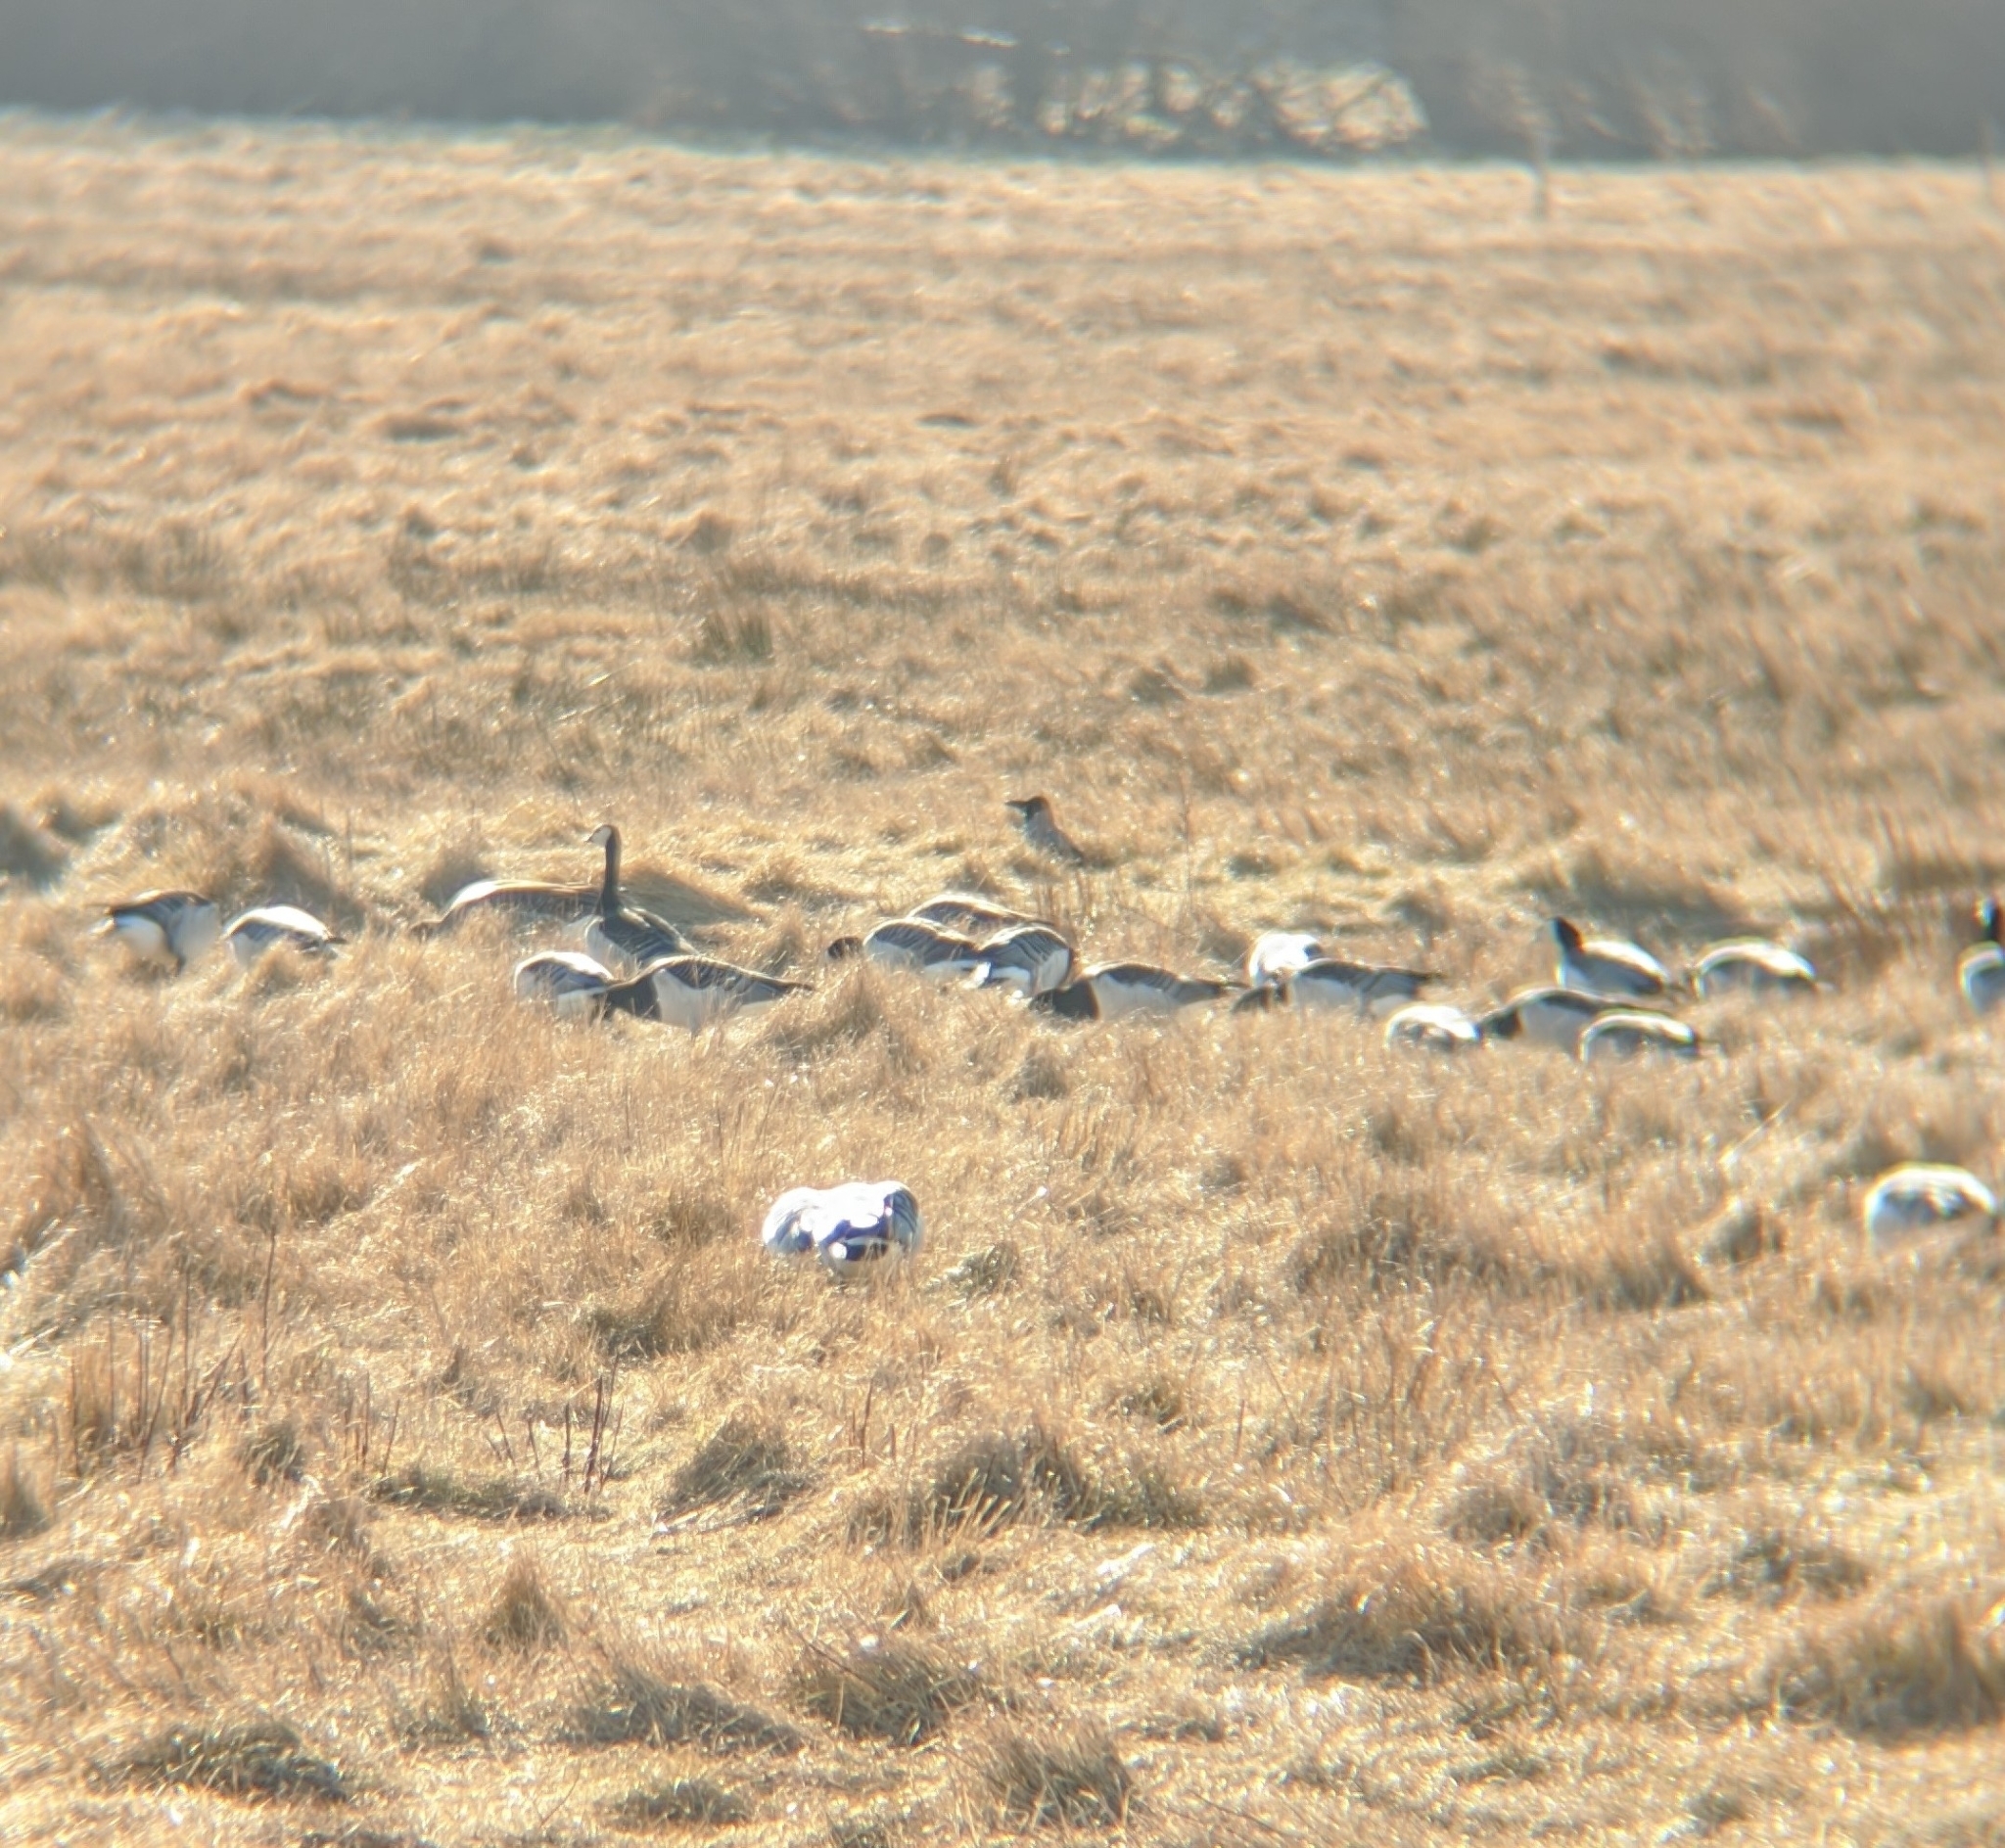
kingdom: Animalia
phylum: Chordata
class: Aves
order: Anseriformes
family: Anatidae
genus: Branta
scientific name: Branta leucopsis
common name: Barnacle goose
